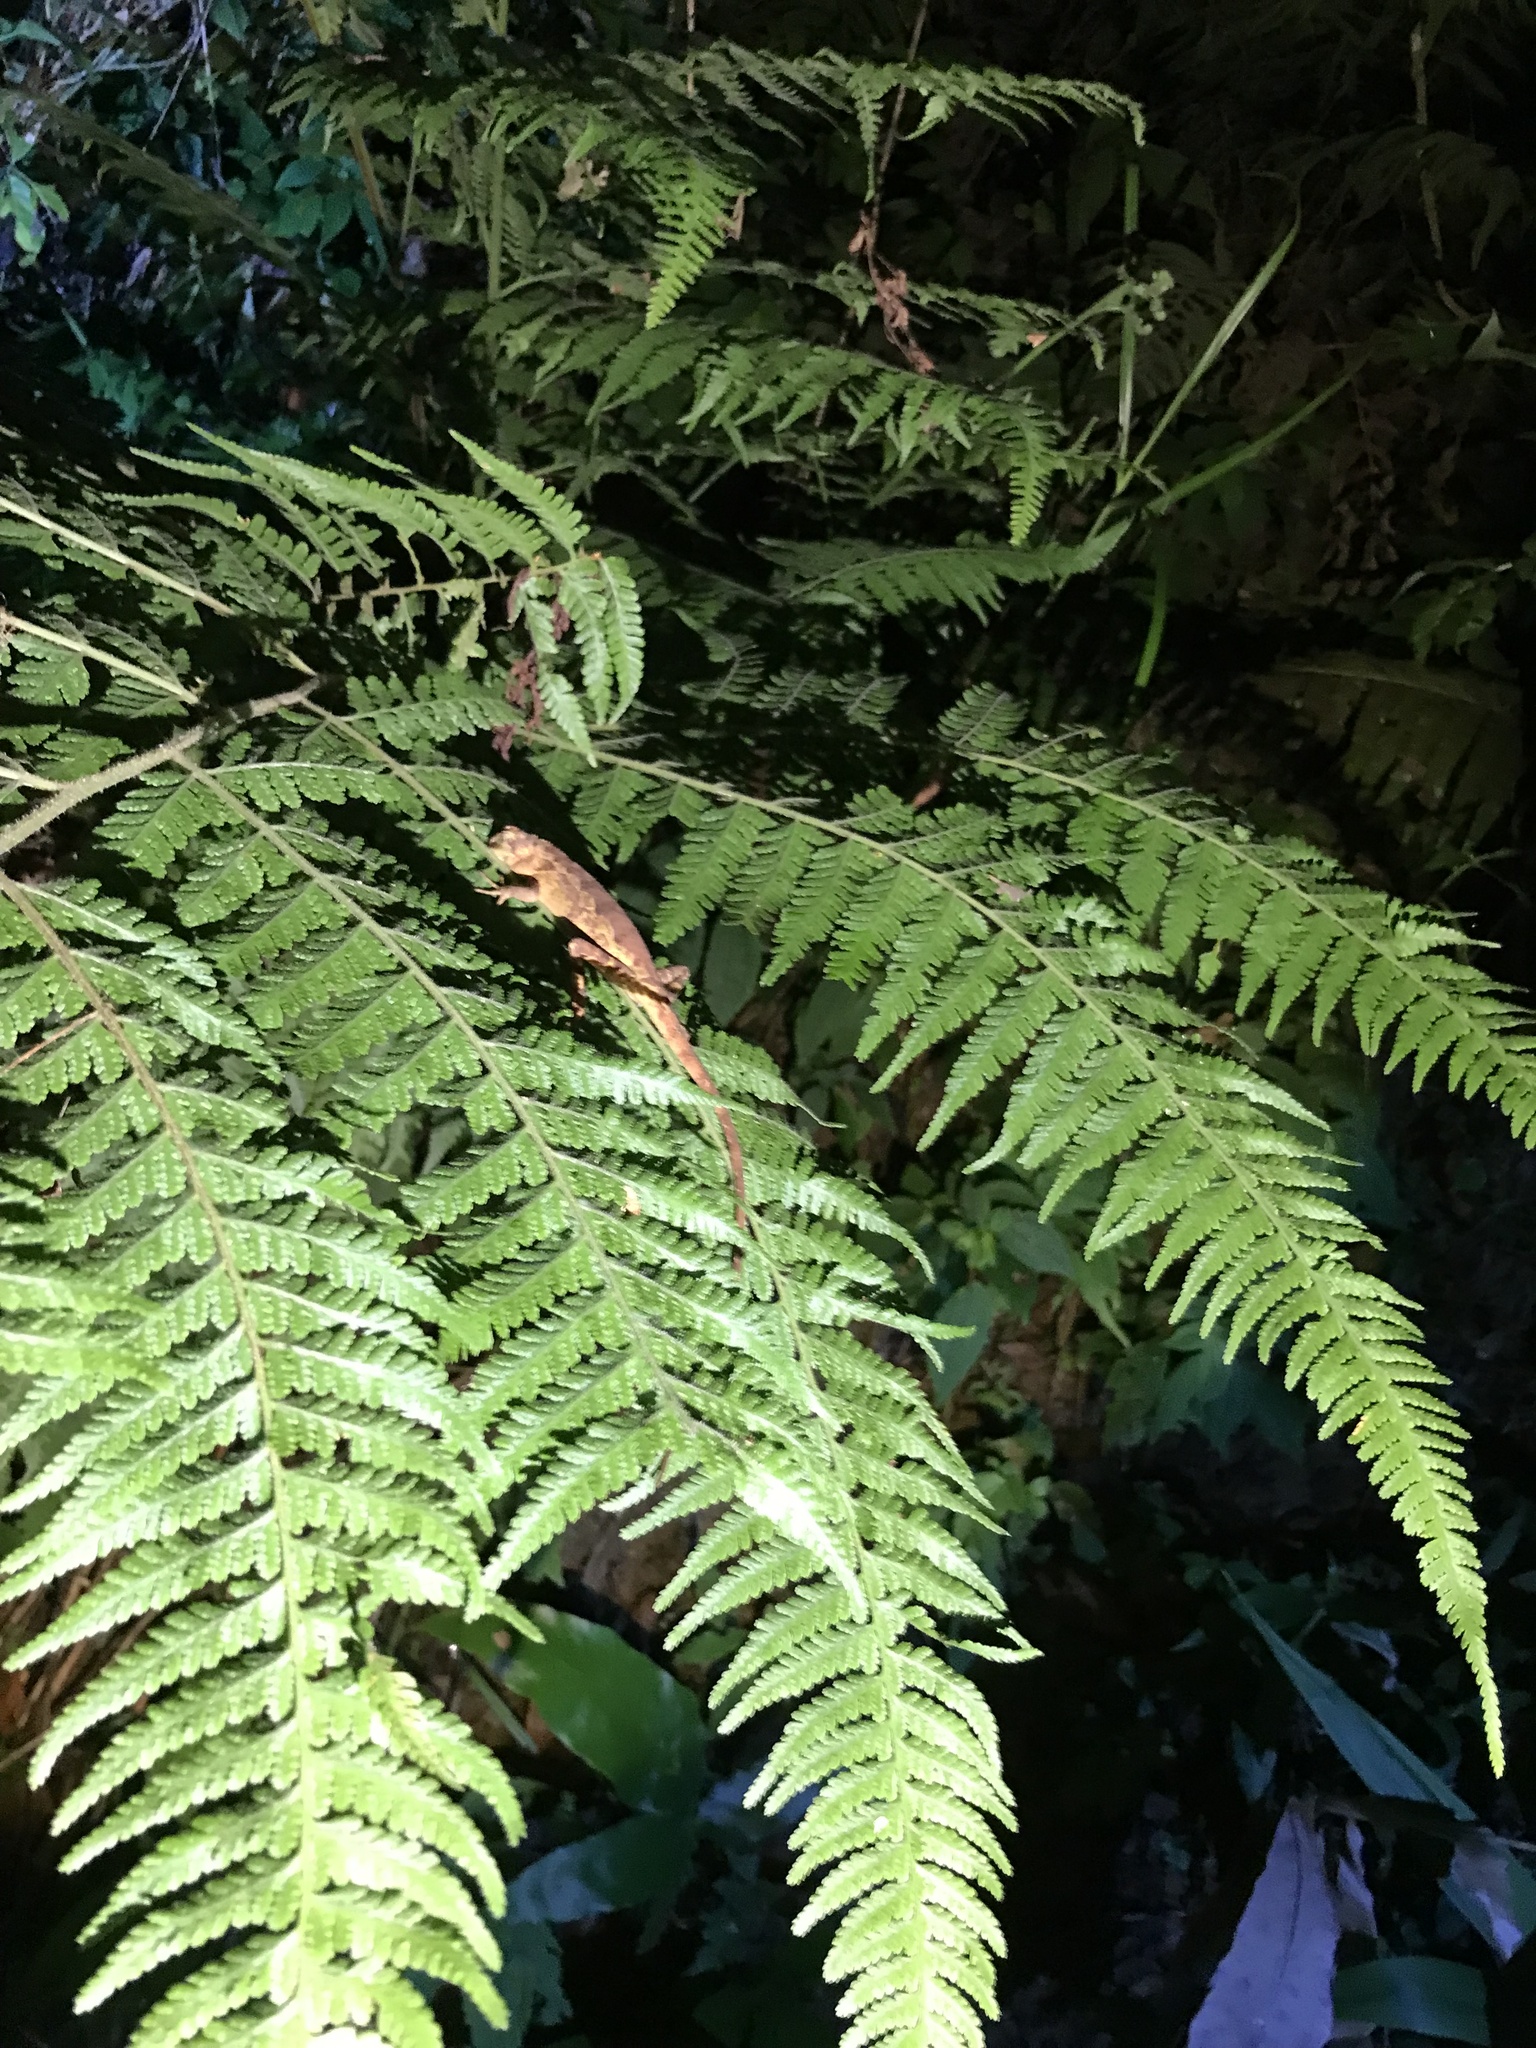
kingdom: Animalia
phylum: Chordata
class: Squamata
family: Agamidae
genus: Diploderma
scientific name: Diploderma swinhonis
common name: Taiwan japalure
